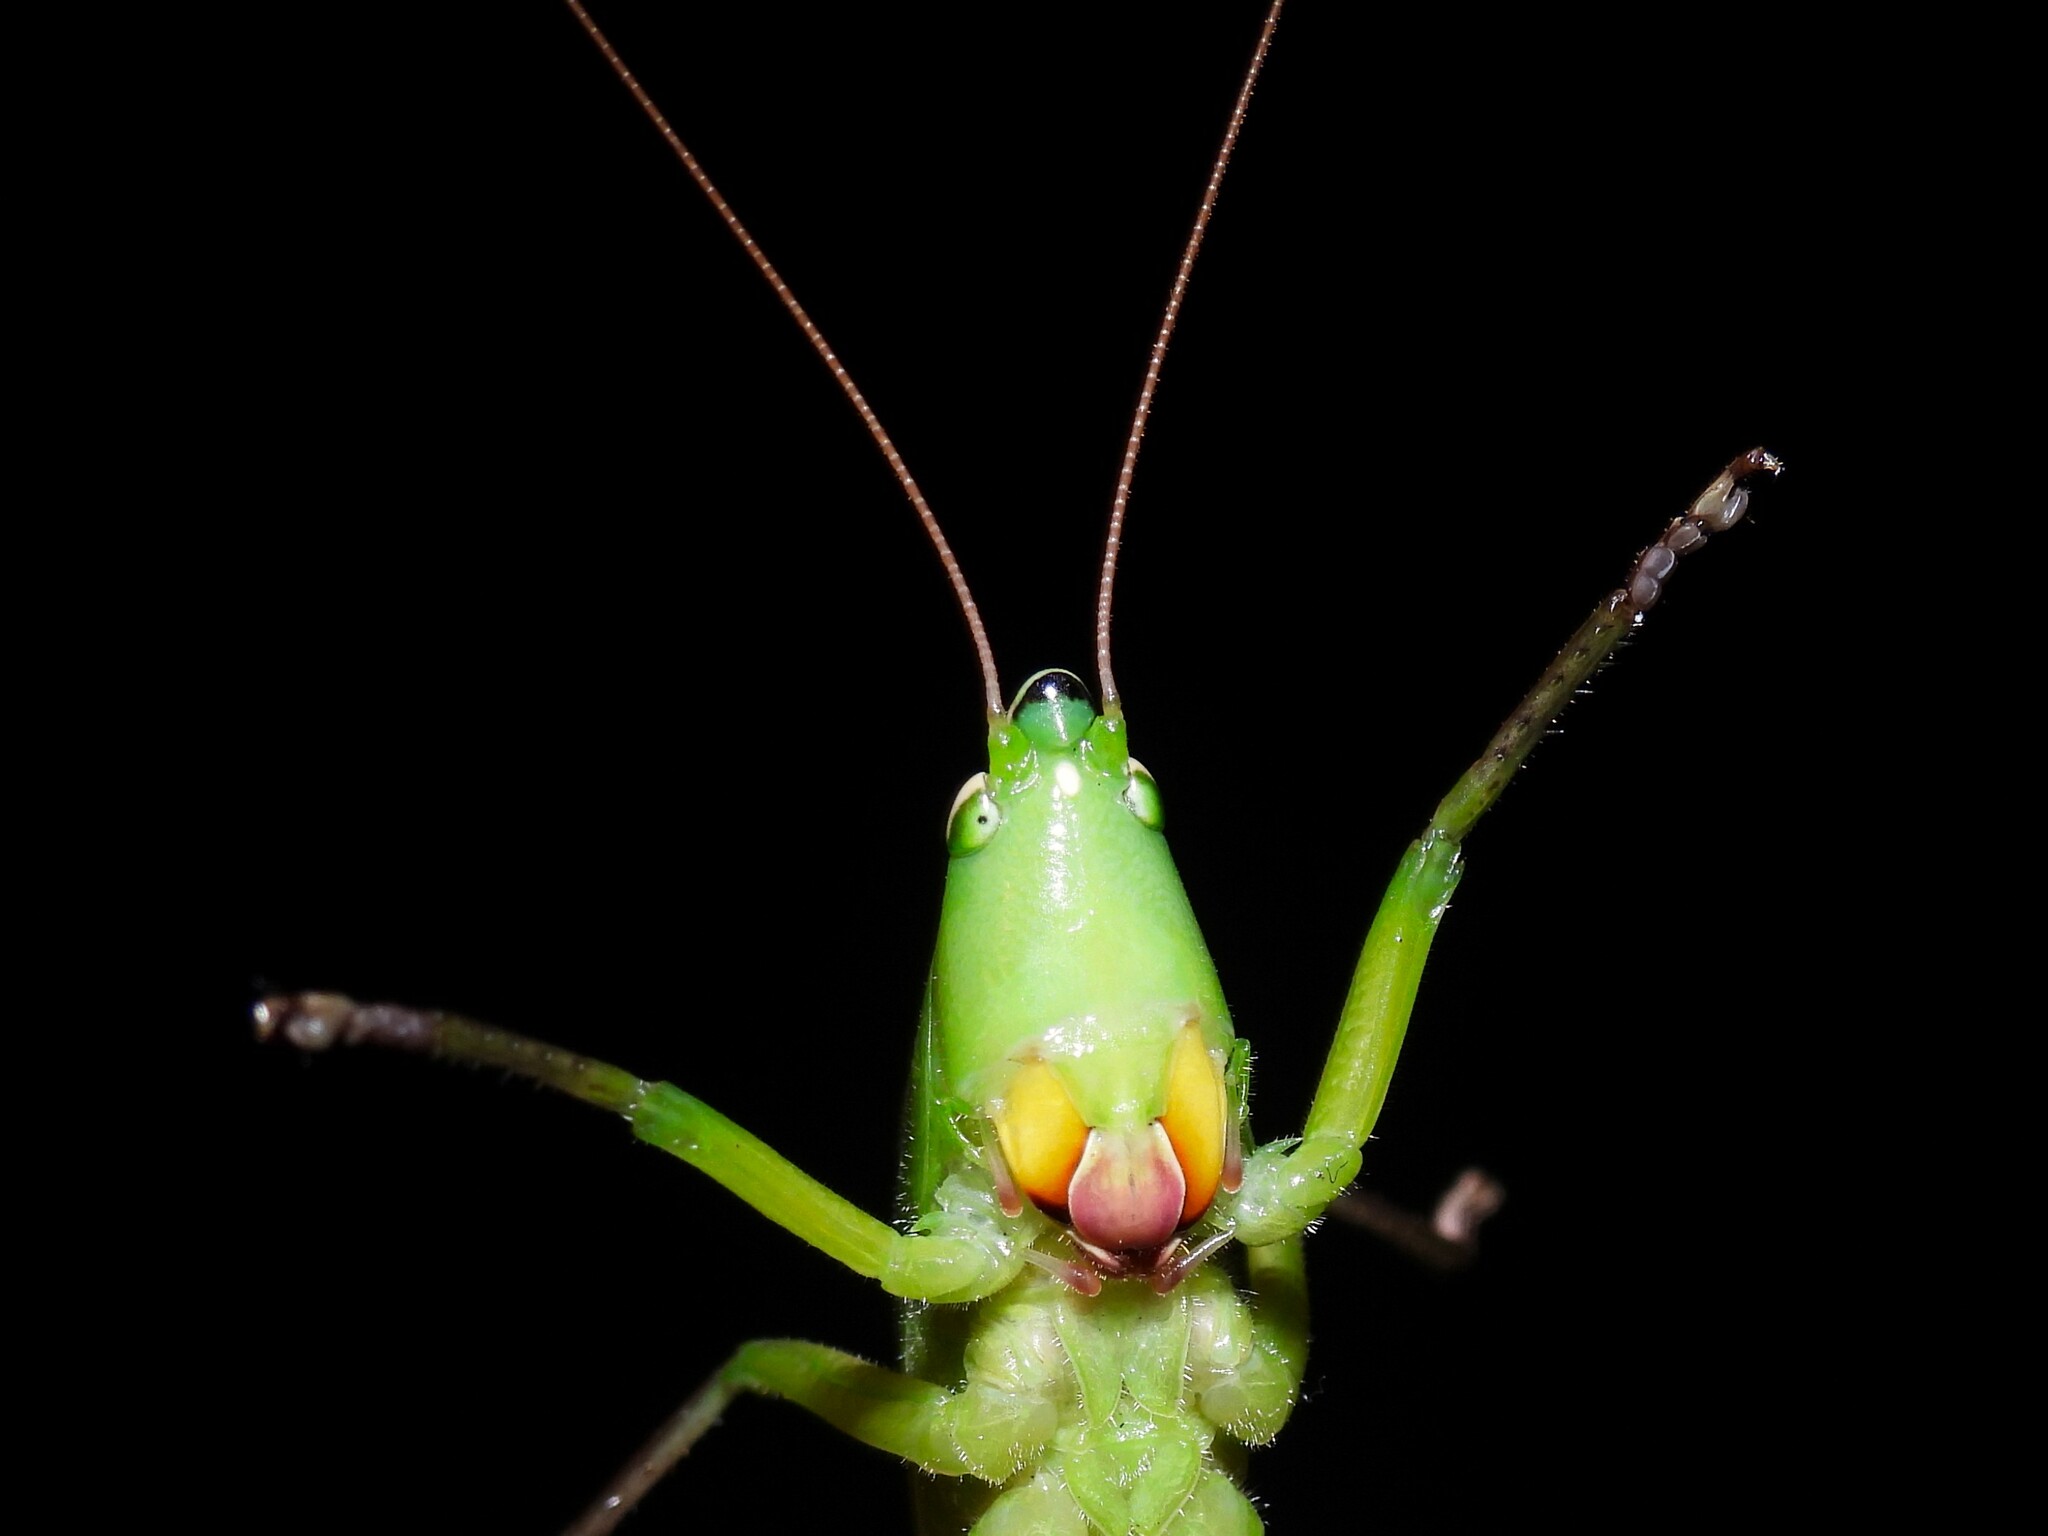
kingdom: Animalia
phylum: Arthropoda
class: Insecta
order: Orthoptera
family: Tettigoniidae
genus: Neoconocephalus
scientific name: Neoconocephalus triops
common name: Broad-tipped conehead
